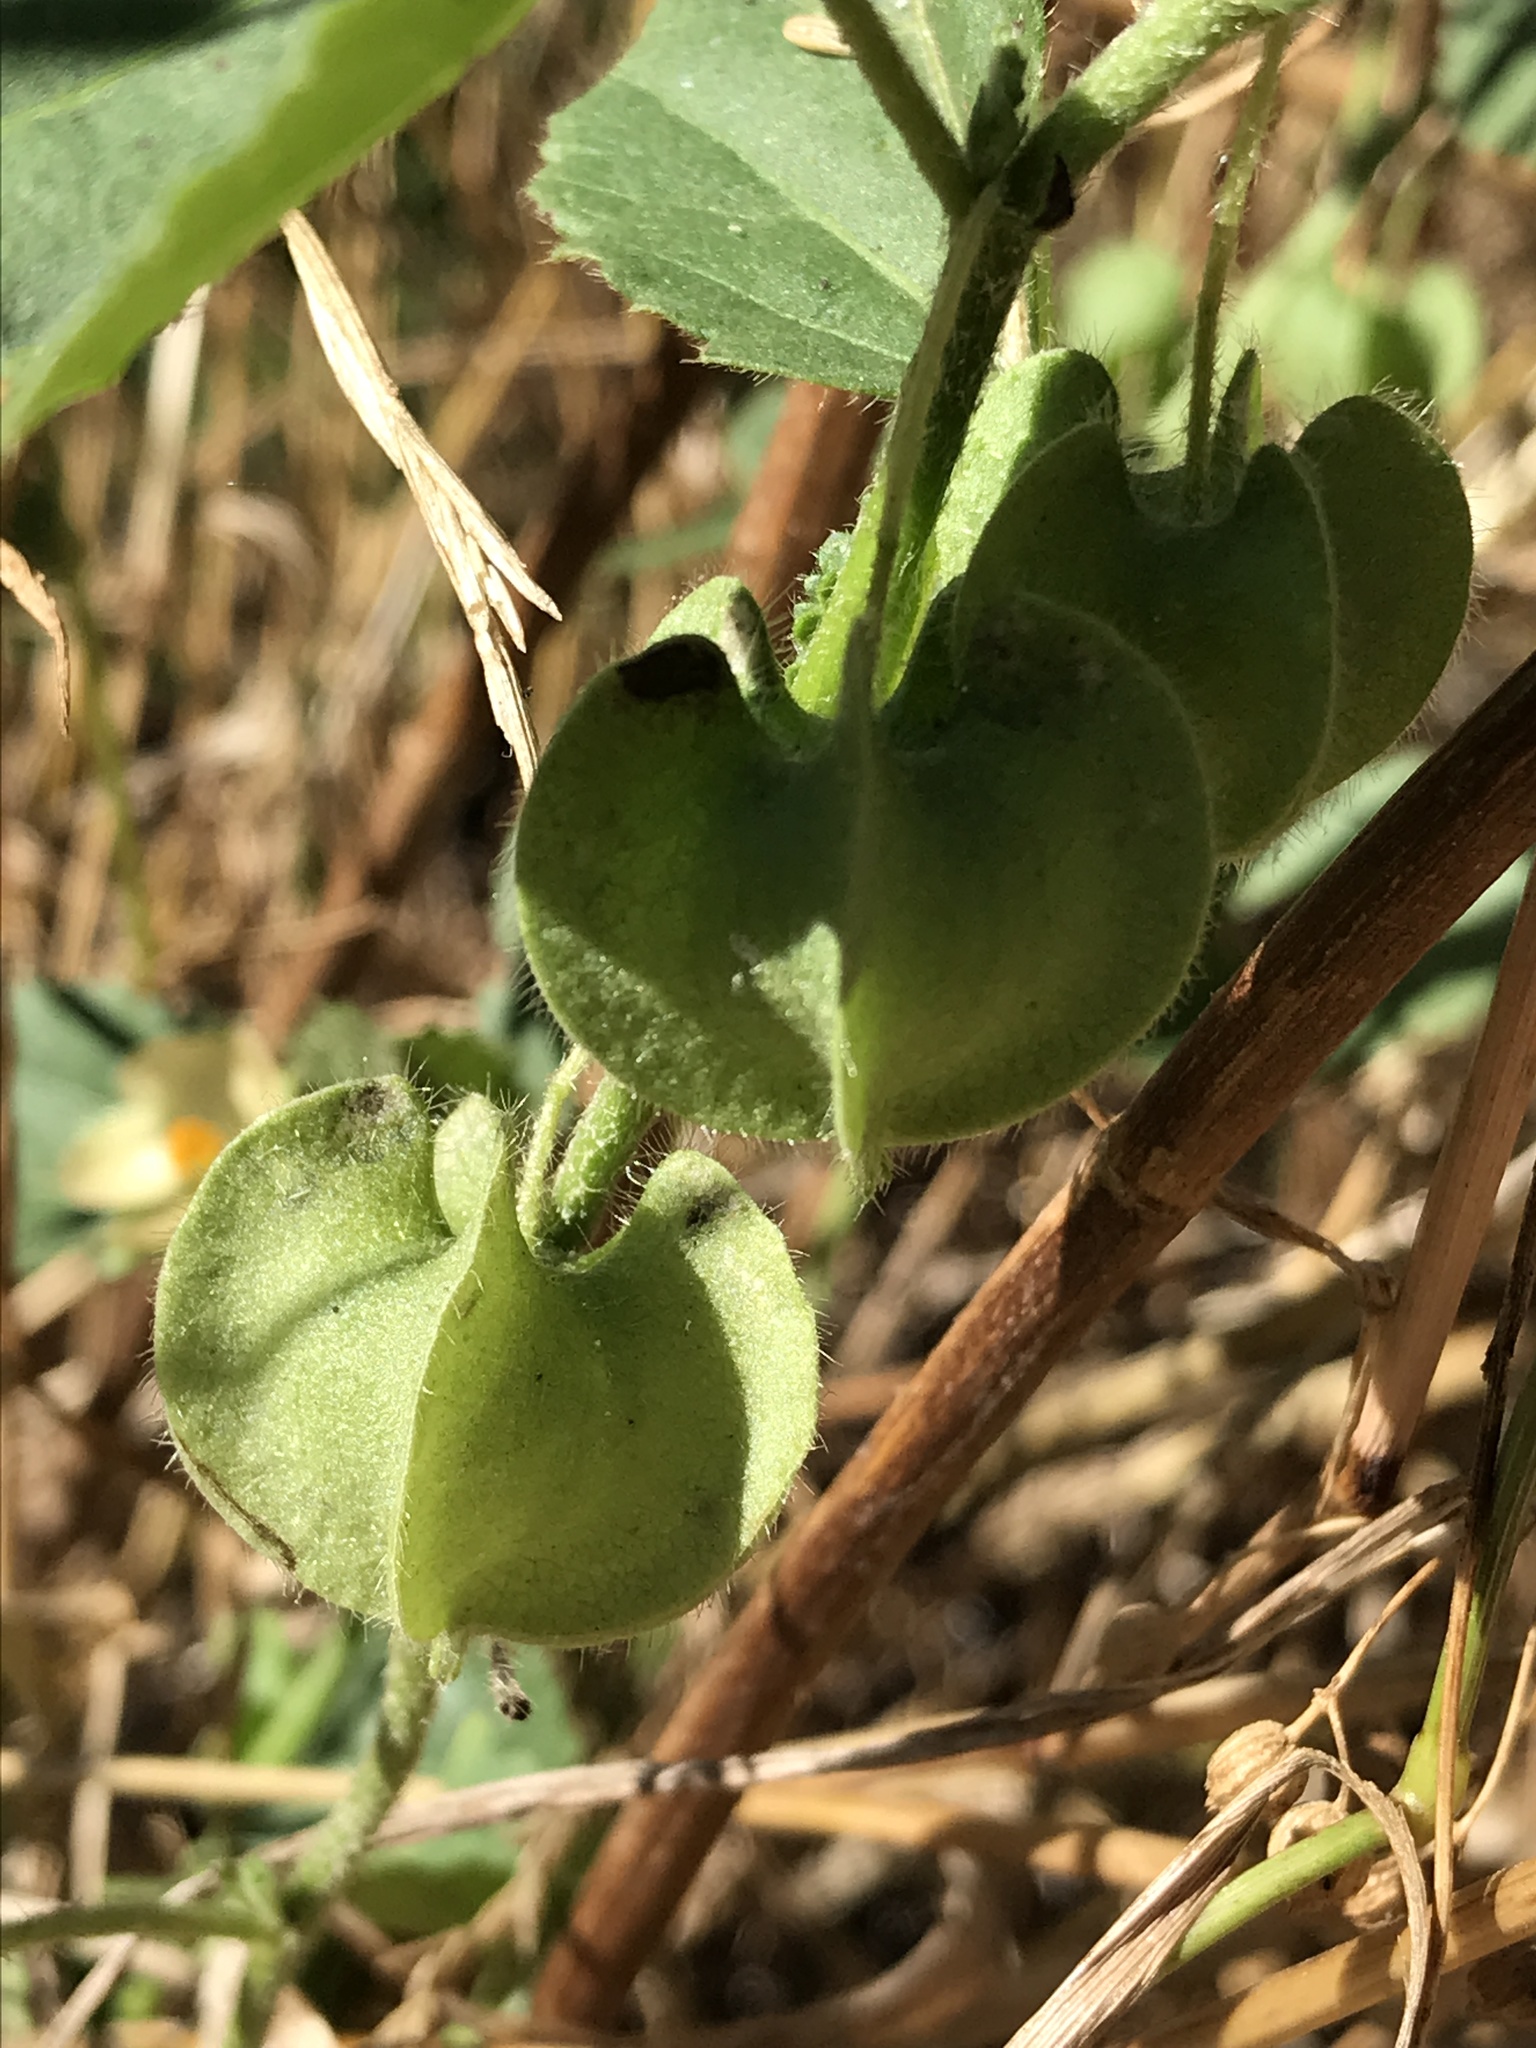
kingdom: Plantae
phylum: Tracheophyta
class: Magnoliopsida
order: Malvales
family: Malvaceae
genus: Rhynchosida
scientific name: Rhynchosida physocalyx
